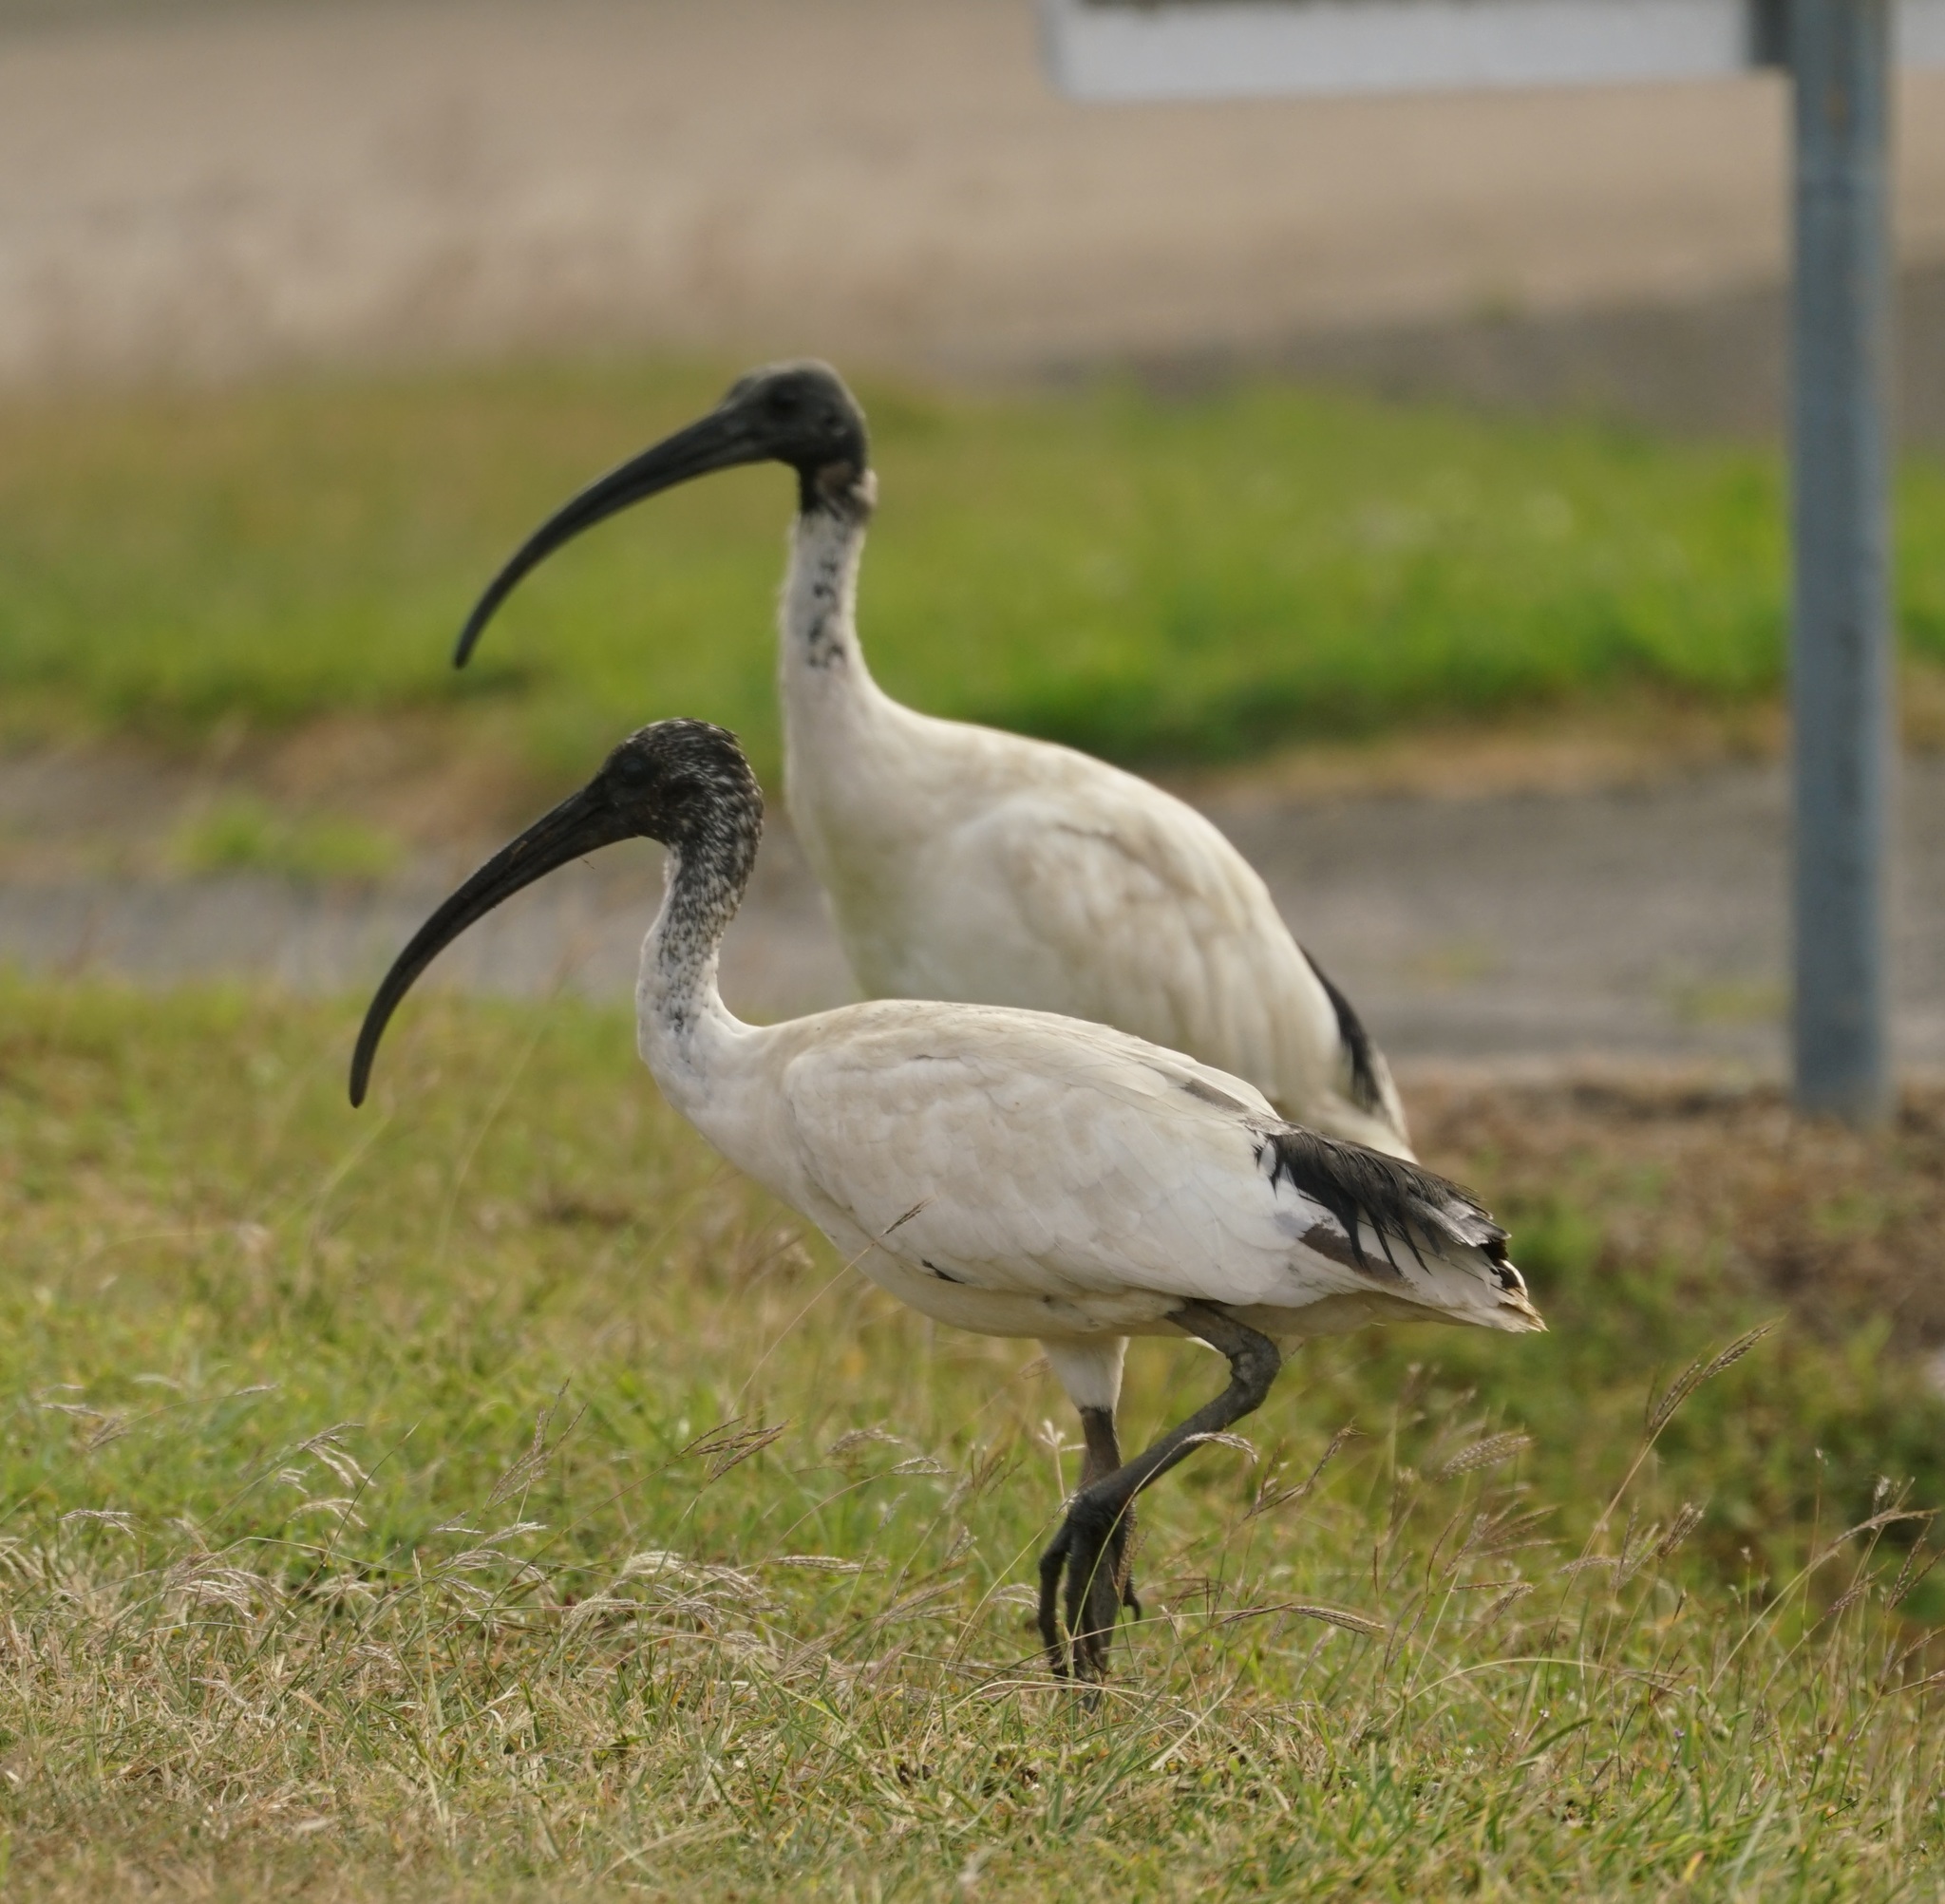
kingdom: Animalia
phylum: Chordata
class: Aves
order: Pelecaniformes
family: Threskiornithidae
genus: Threskiornis
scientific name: Threskiornis molucca
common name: Australian white ibis
